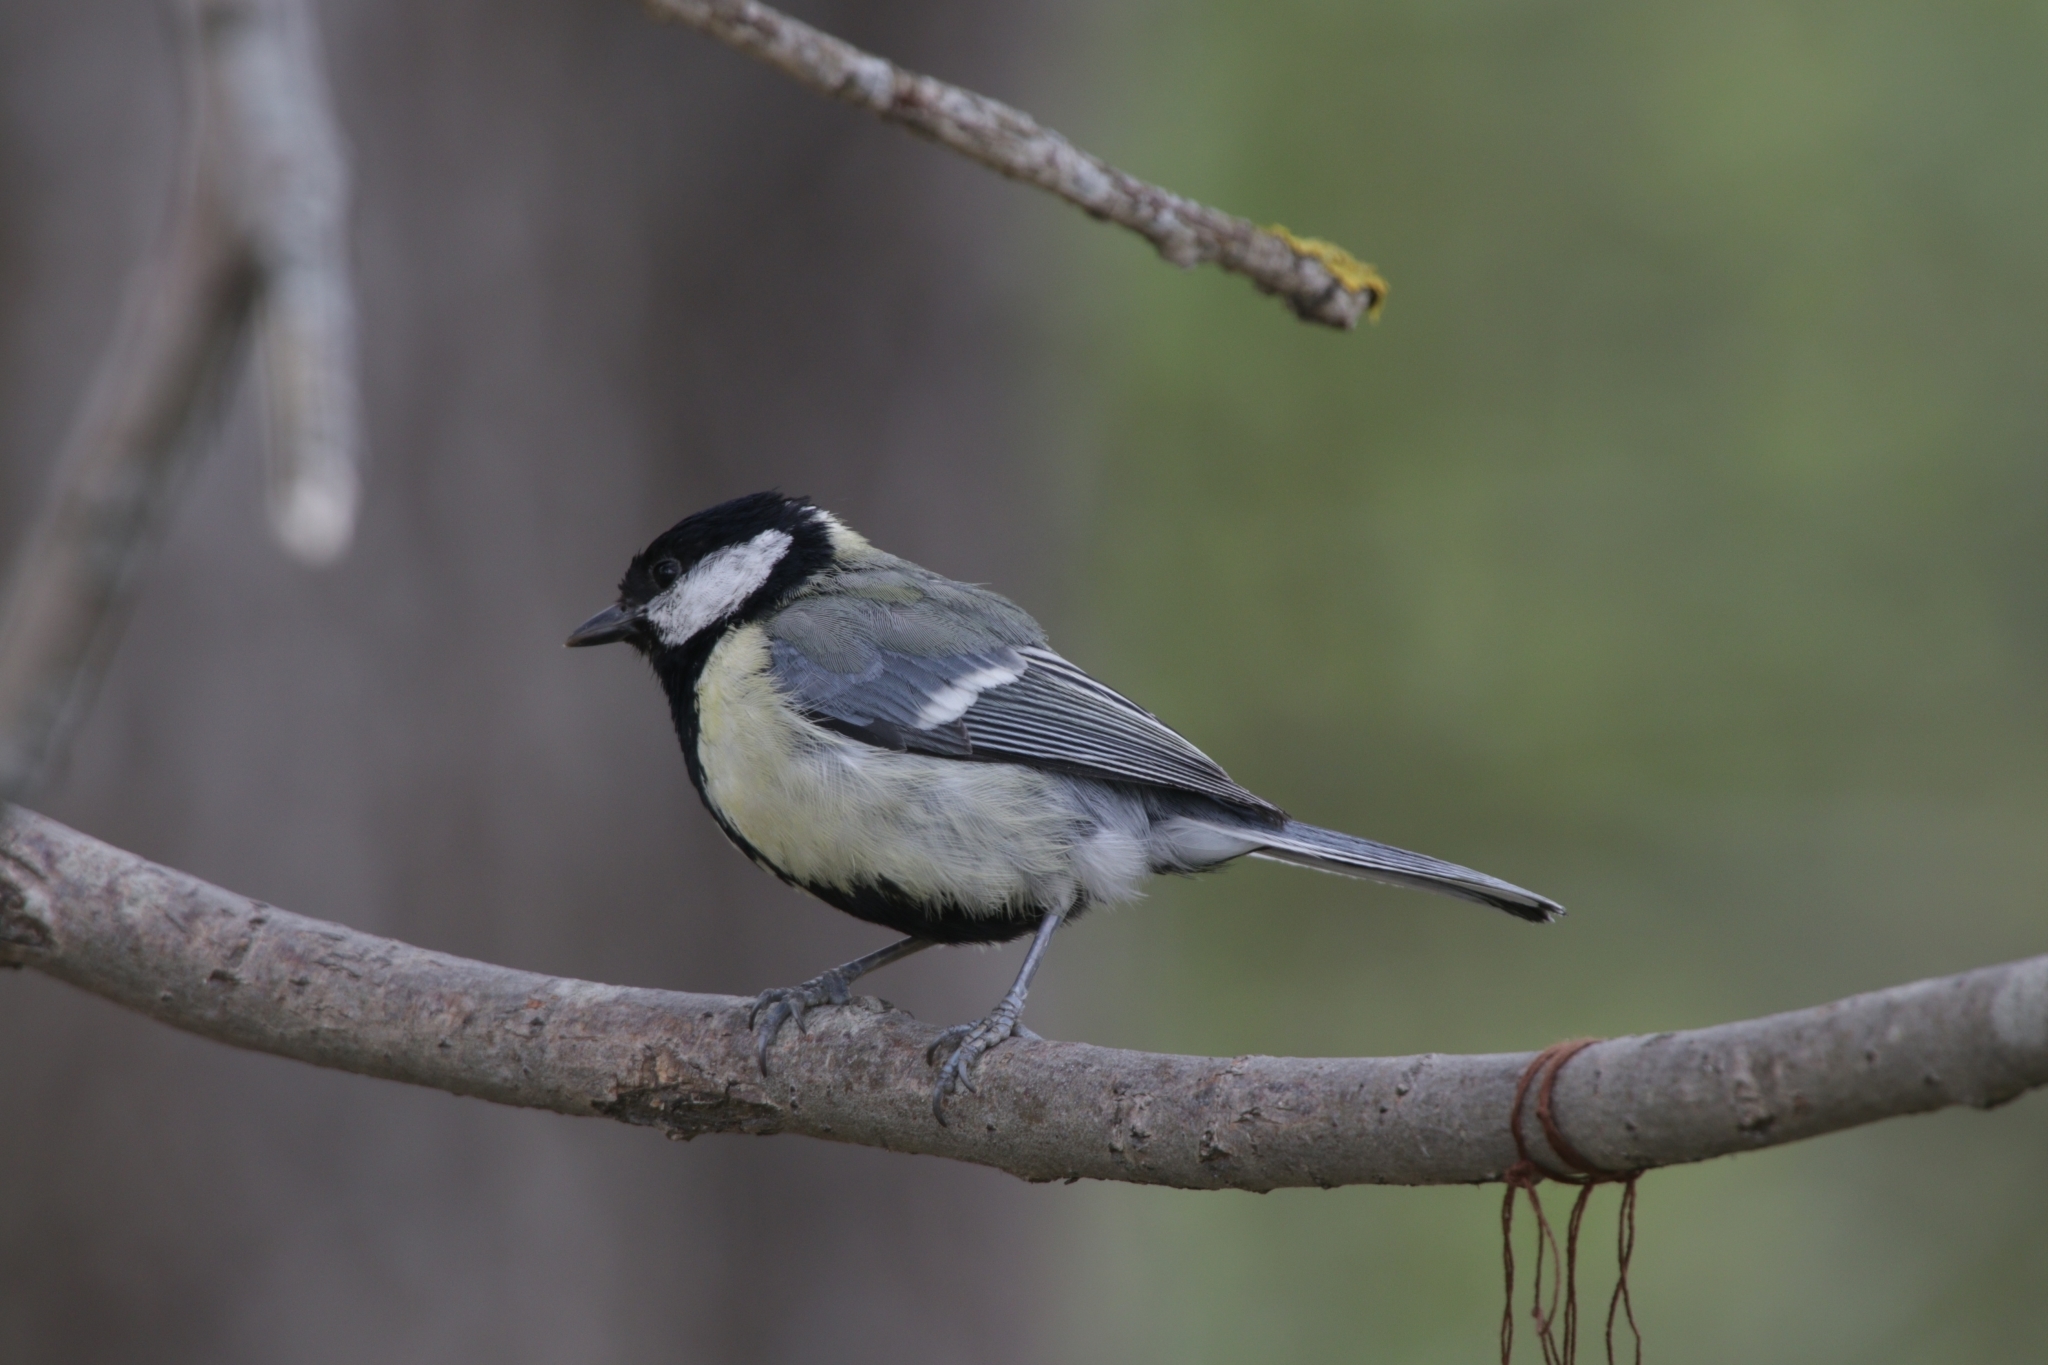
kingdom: Animalia
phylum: Chordata
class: Aves
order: Passeriformes
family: Paridae
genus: Parus
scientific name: Parus major
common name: Great tit
